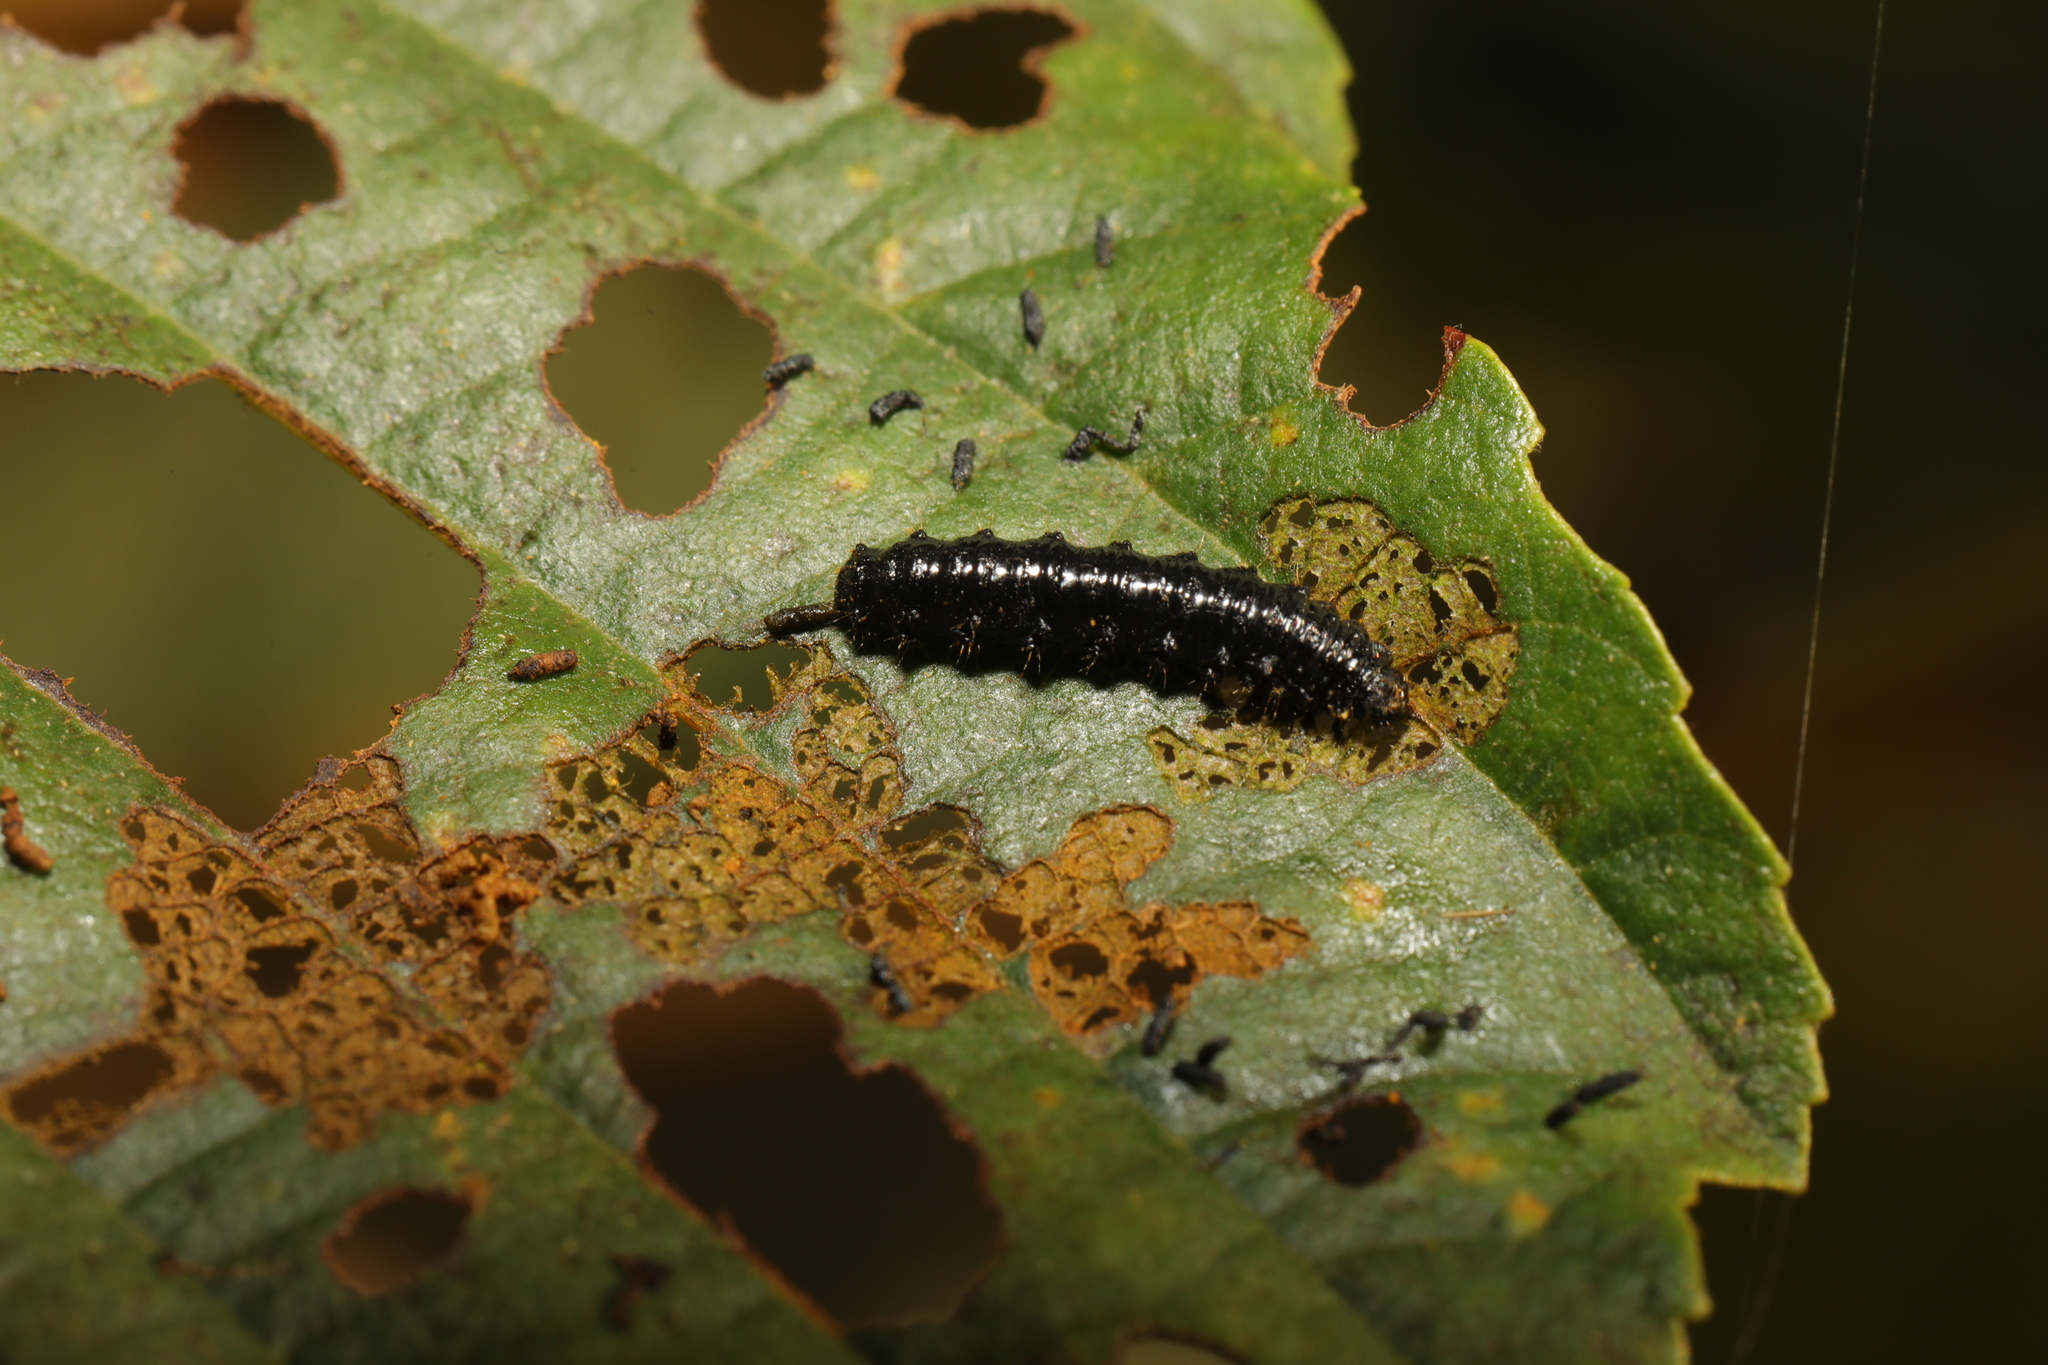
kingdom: Animalia
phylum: Arthropoda
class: Insecta
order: Coleoptera
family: Chrysomelidae
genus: Agelastica
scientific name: Agelastica alni
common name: Alder leaf beetle
